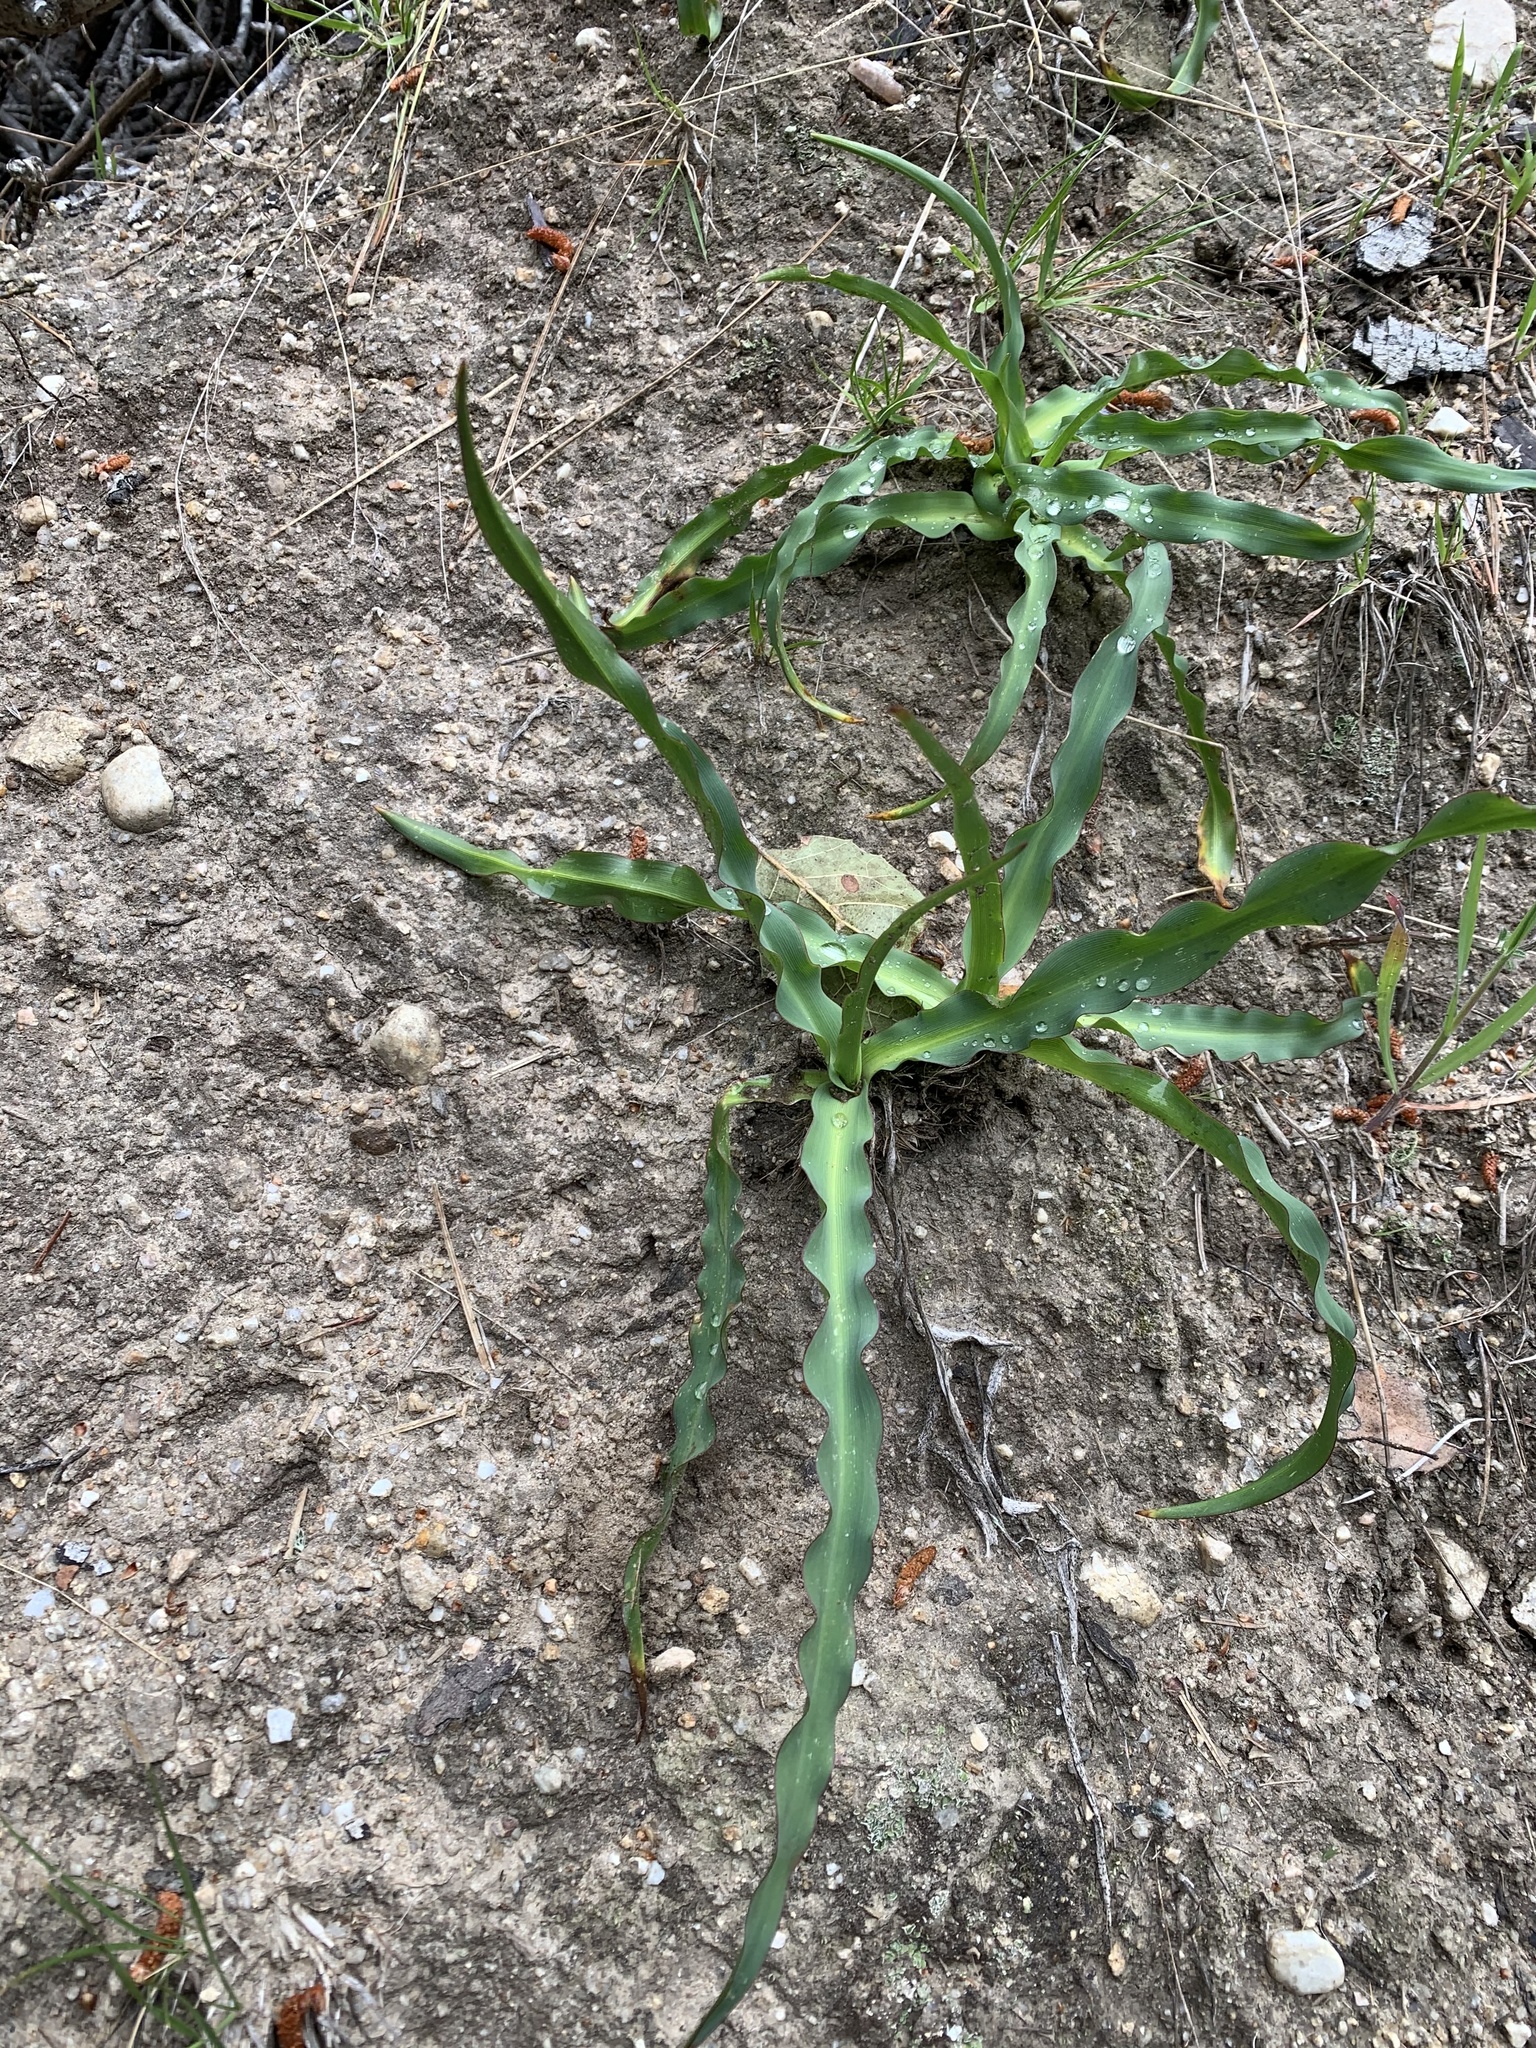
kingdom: Plantae
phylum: Tracheophyta
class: Liliopsida
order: Asparagales
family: Asparagaceae
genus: Chlorogalum
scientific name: Chlorogalum pomeridianum
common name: Amole
